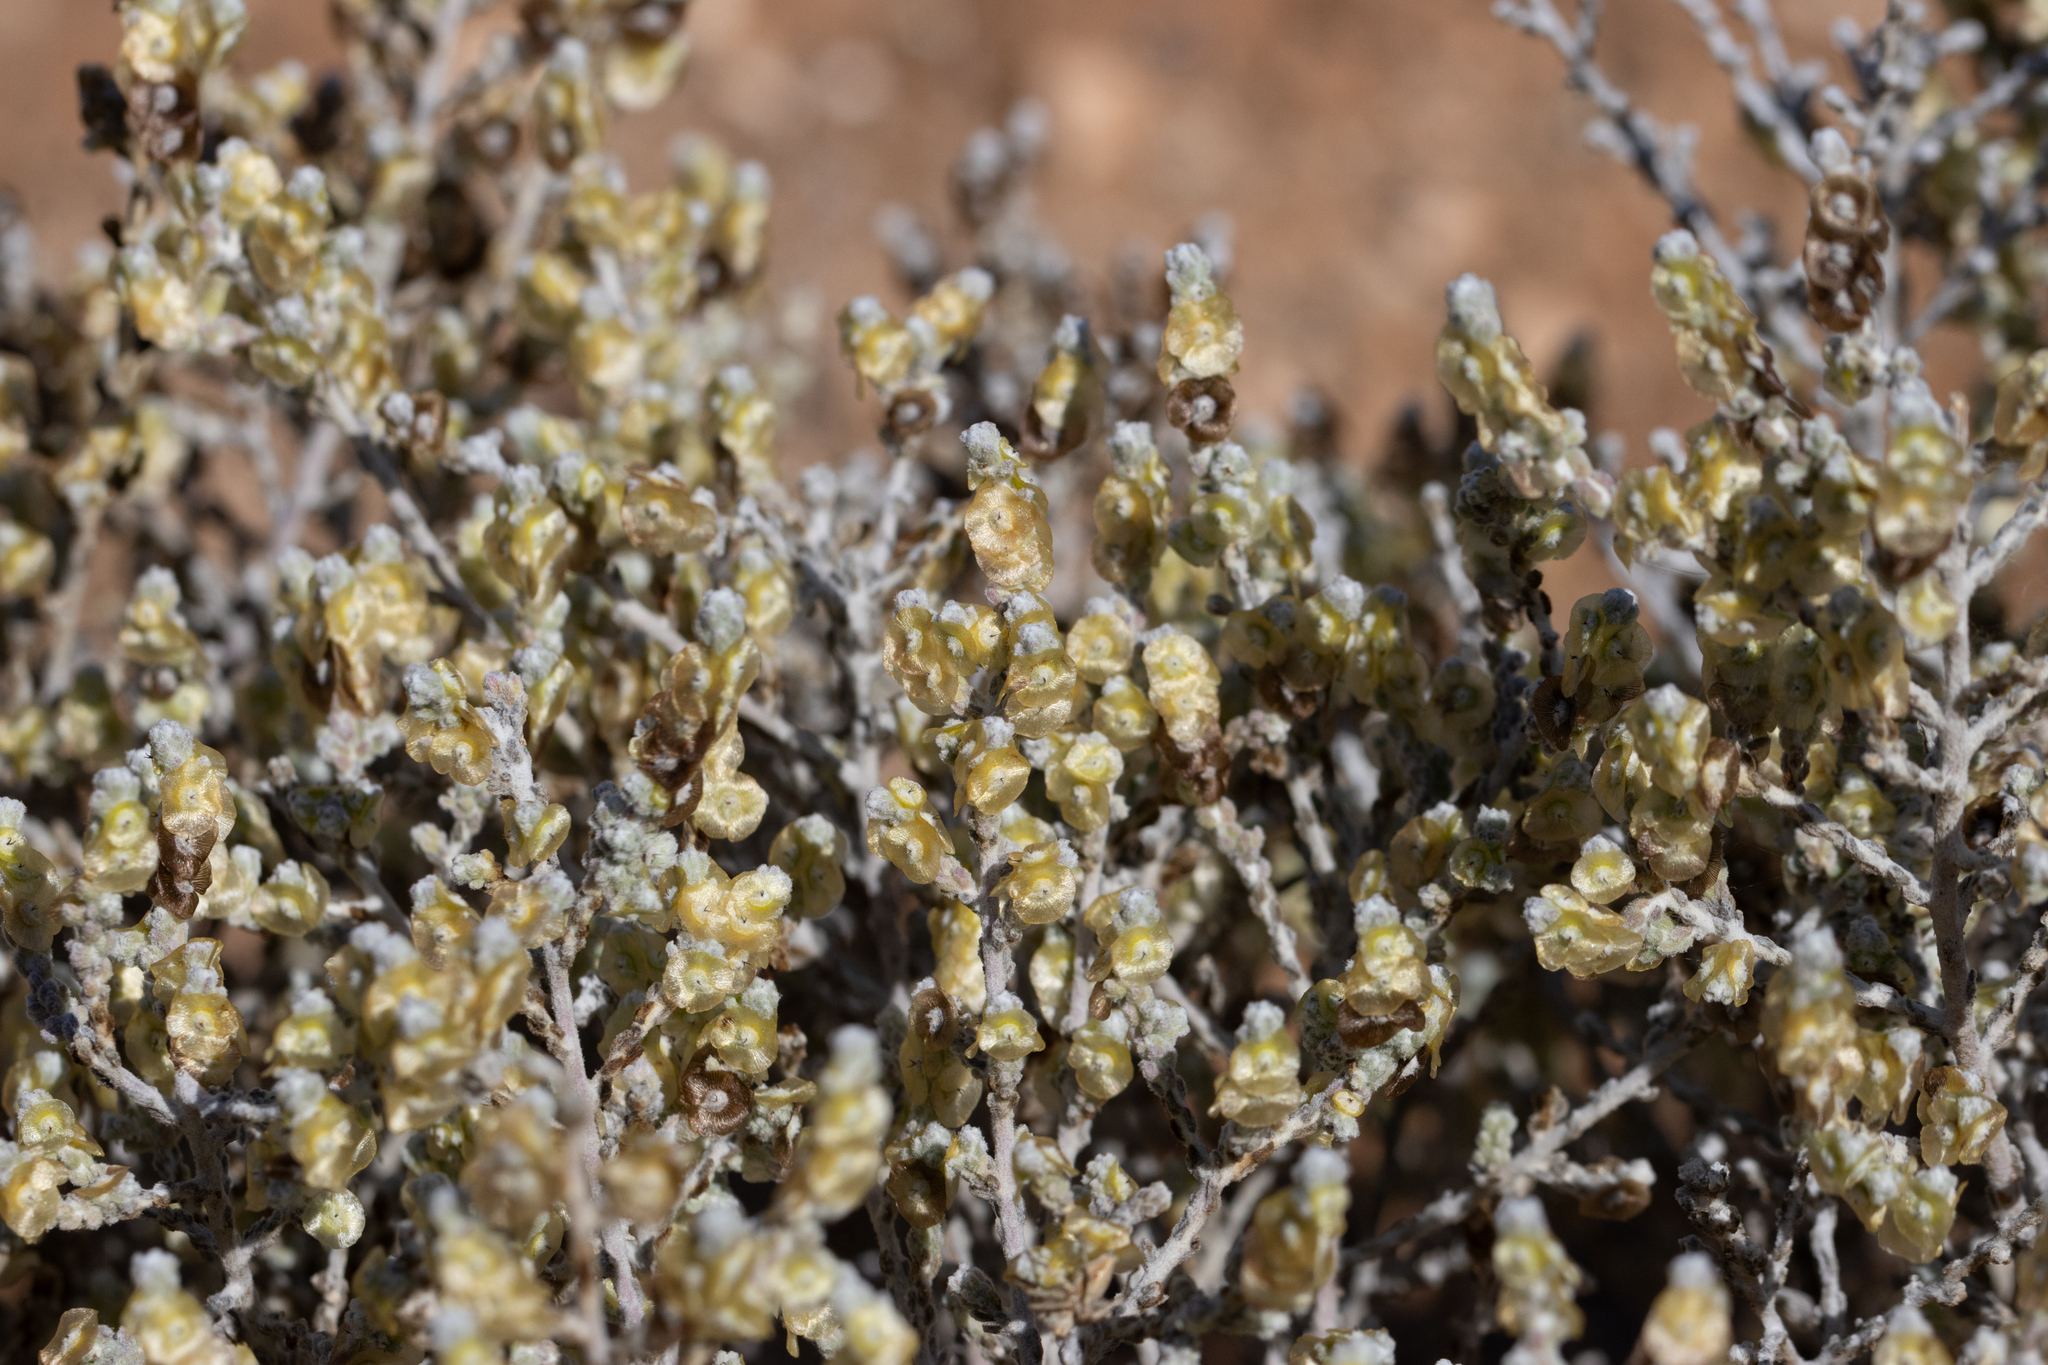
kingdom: Plantae
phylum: Tracheophyta
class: Magnoliopsida
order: Caryophyllales
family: Amaranthaceae
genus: Maireana
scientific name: Maireana radiata
